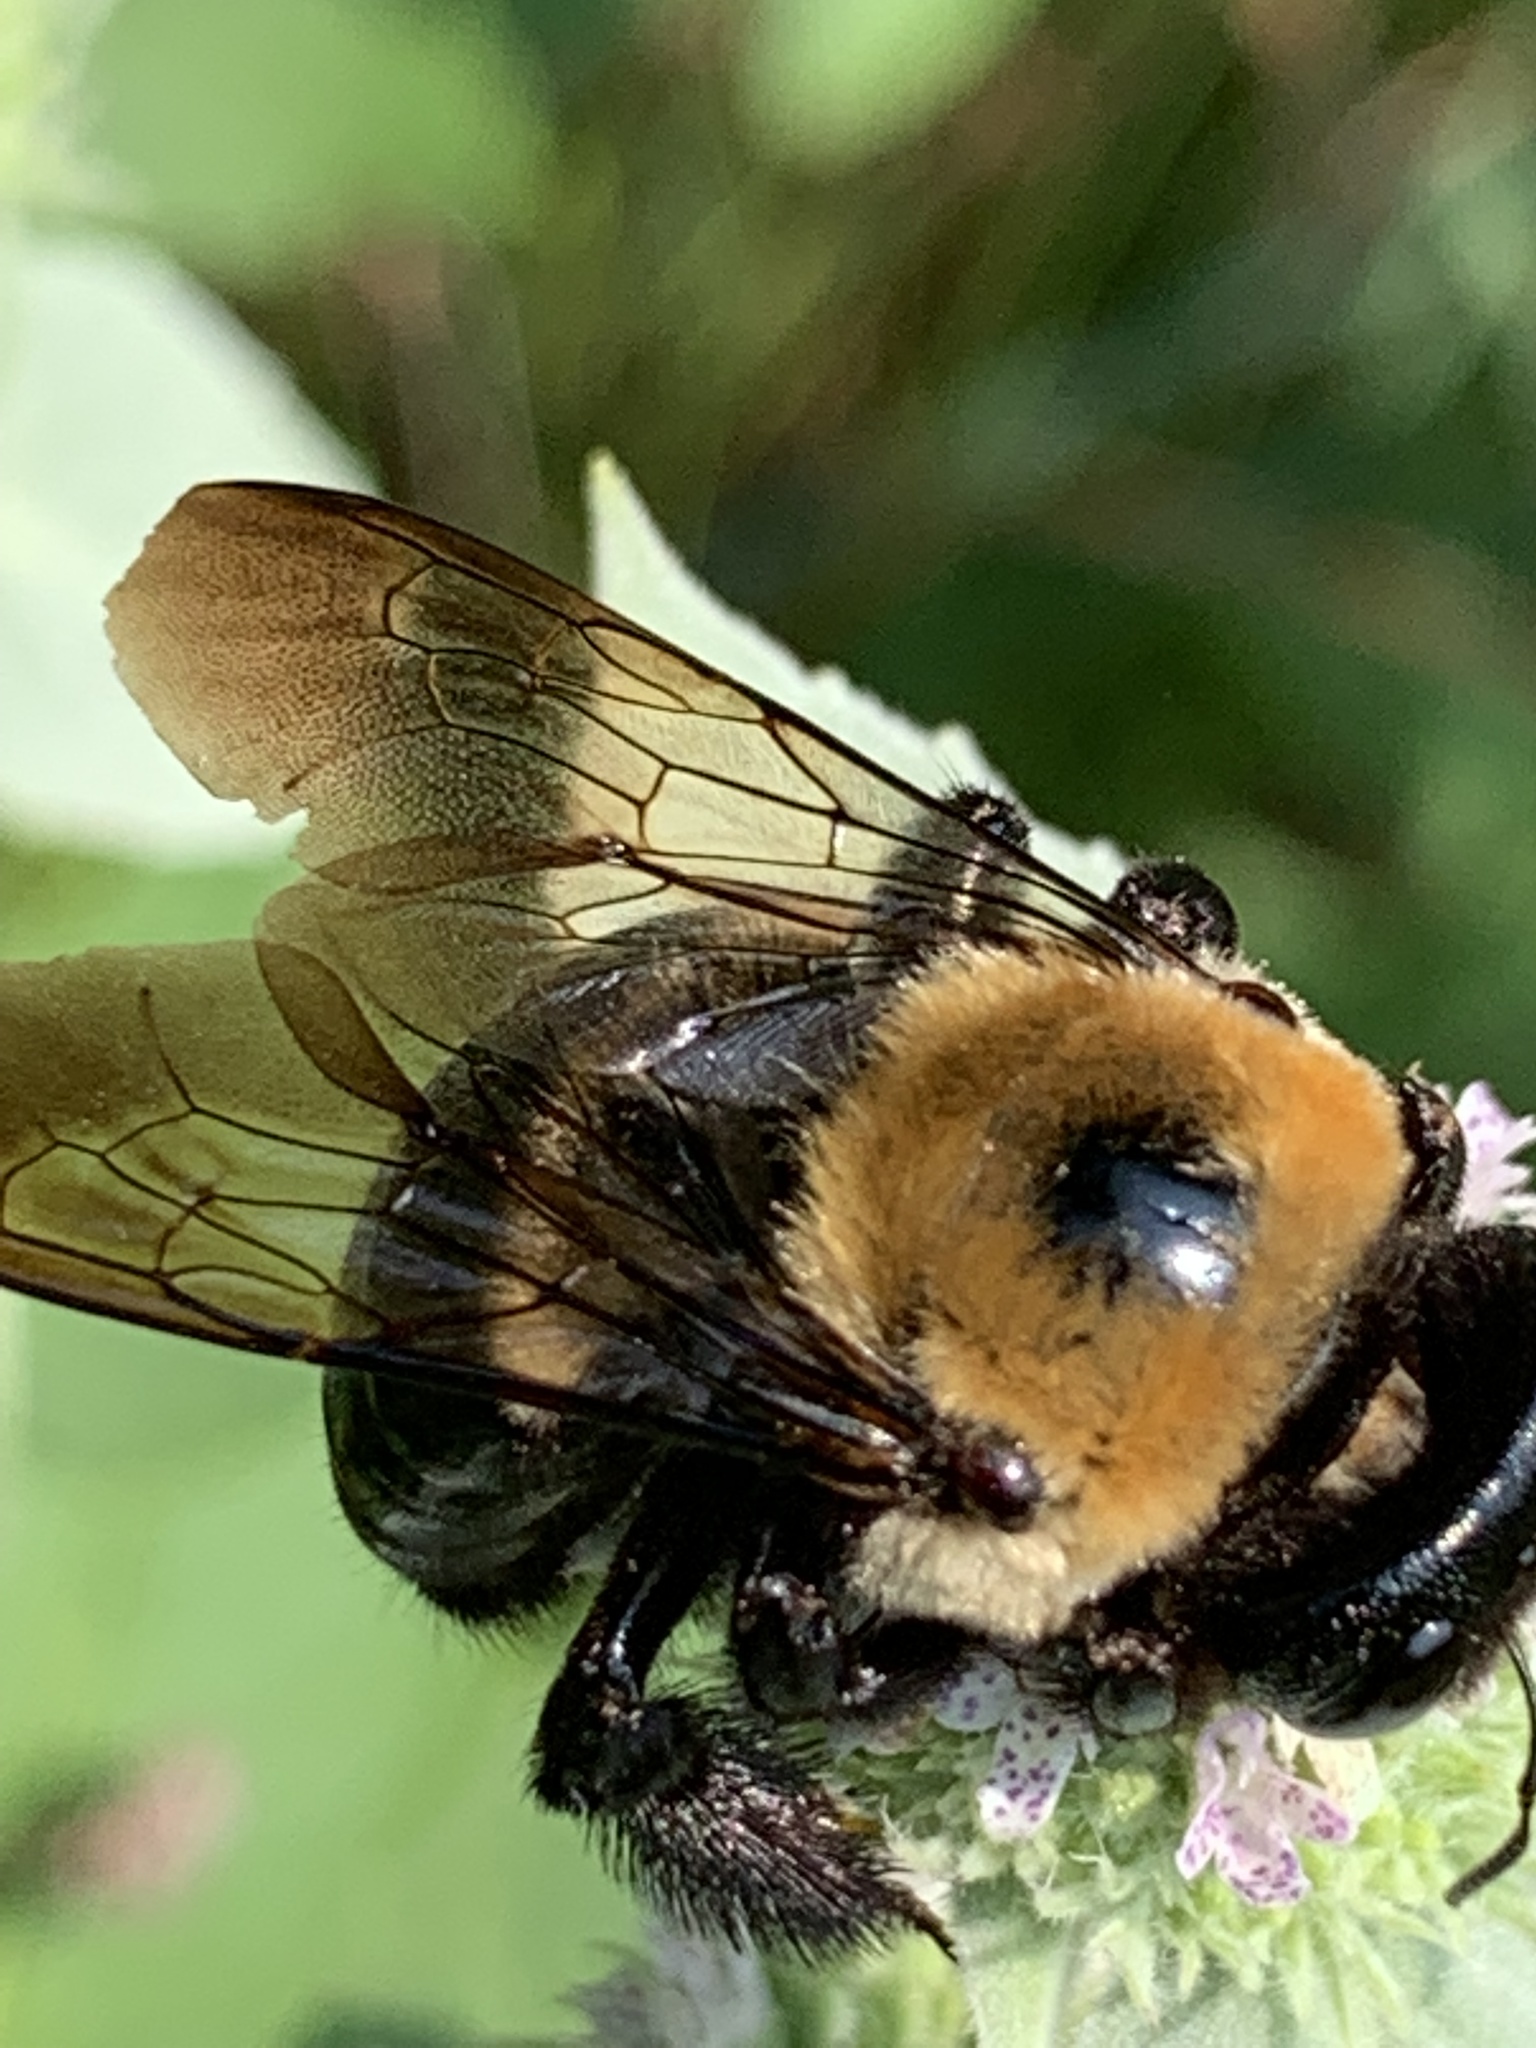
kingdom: Animalia
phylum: Arthropoda
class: Insecta
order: Hymenoptera
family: Apidae
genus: Xylocopa
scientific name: Xylocopa virginica
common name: Carpenter bee
